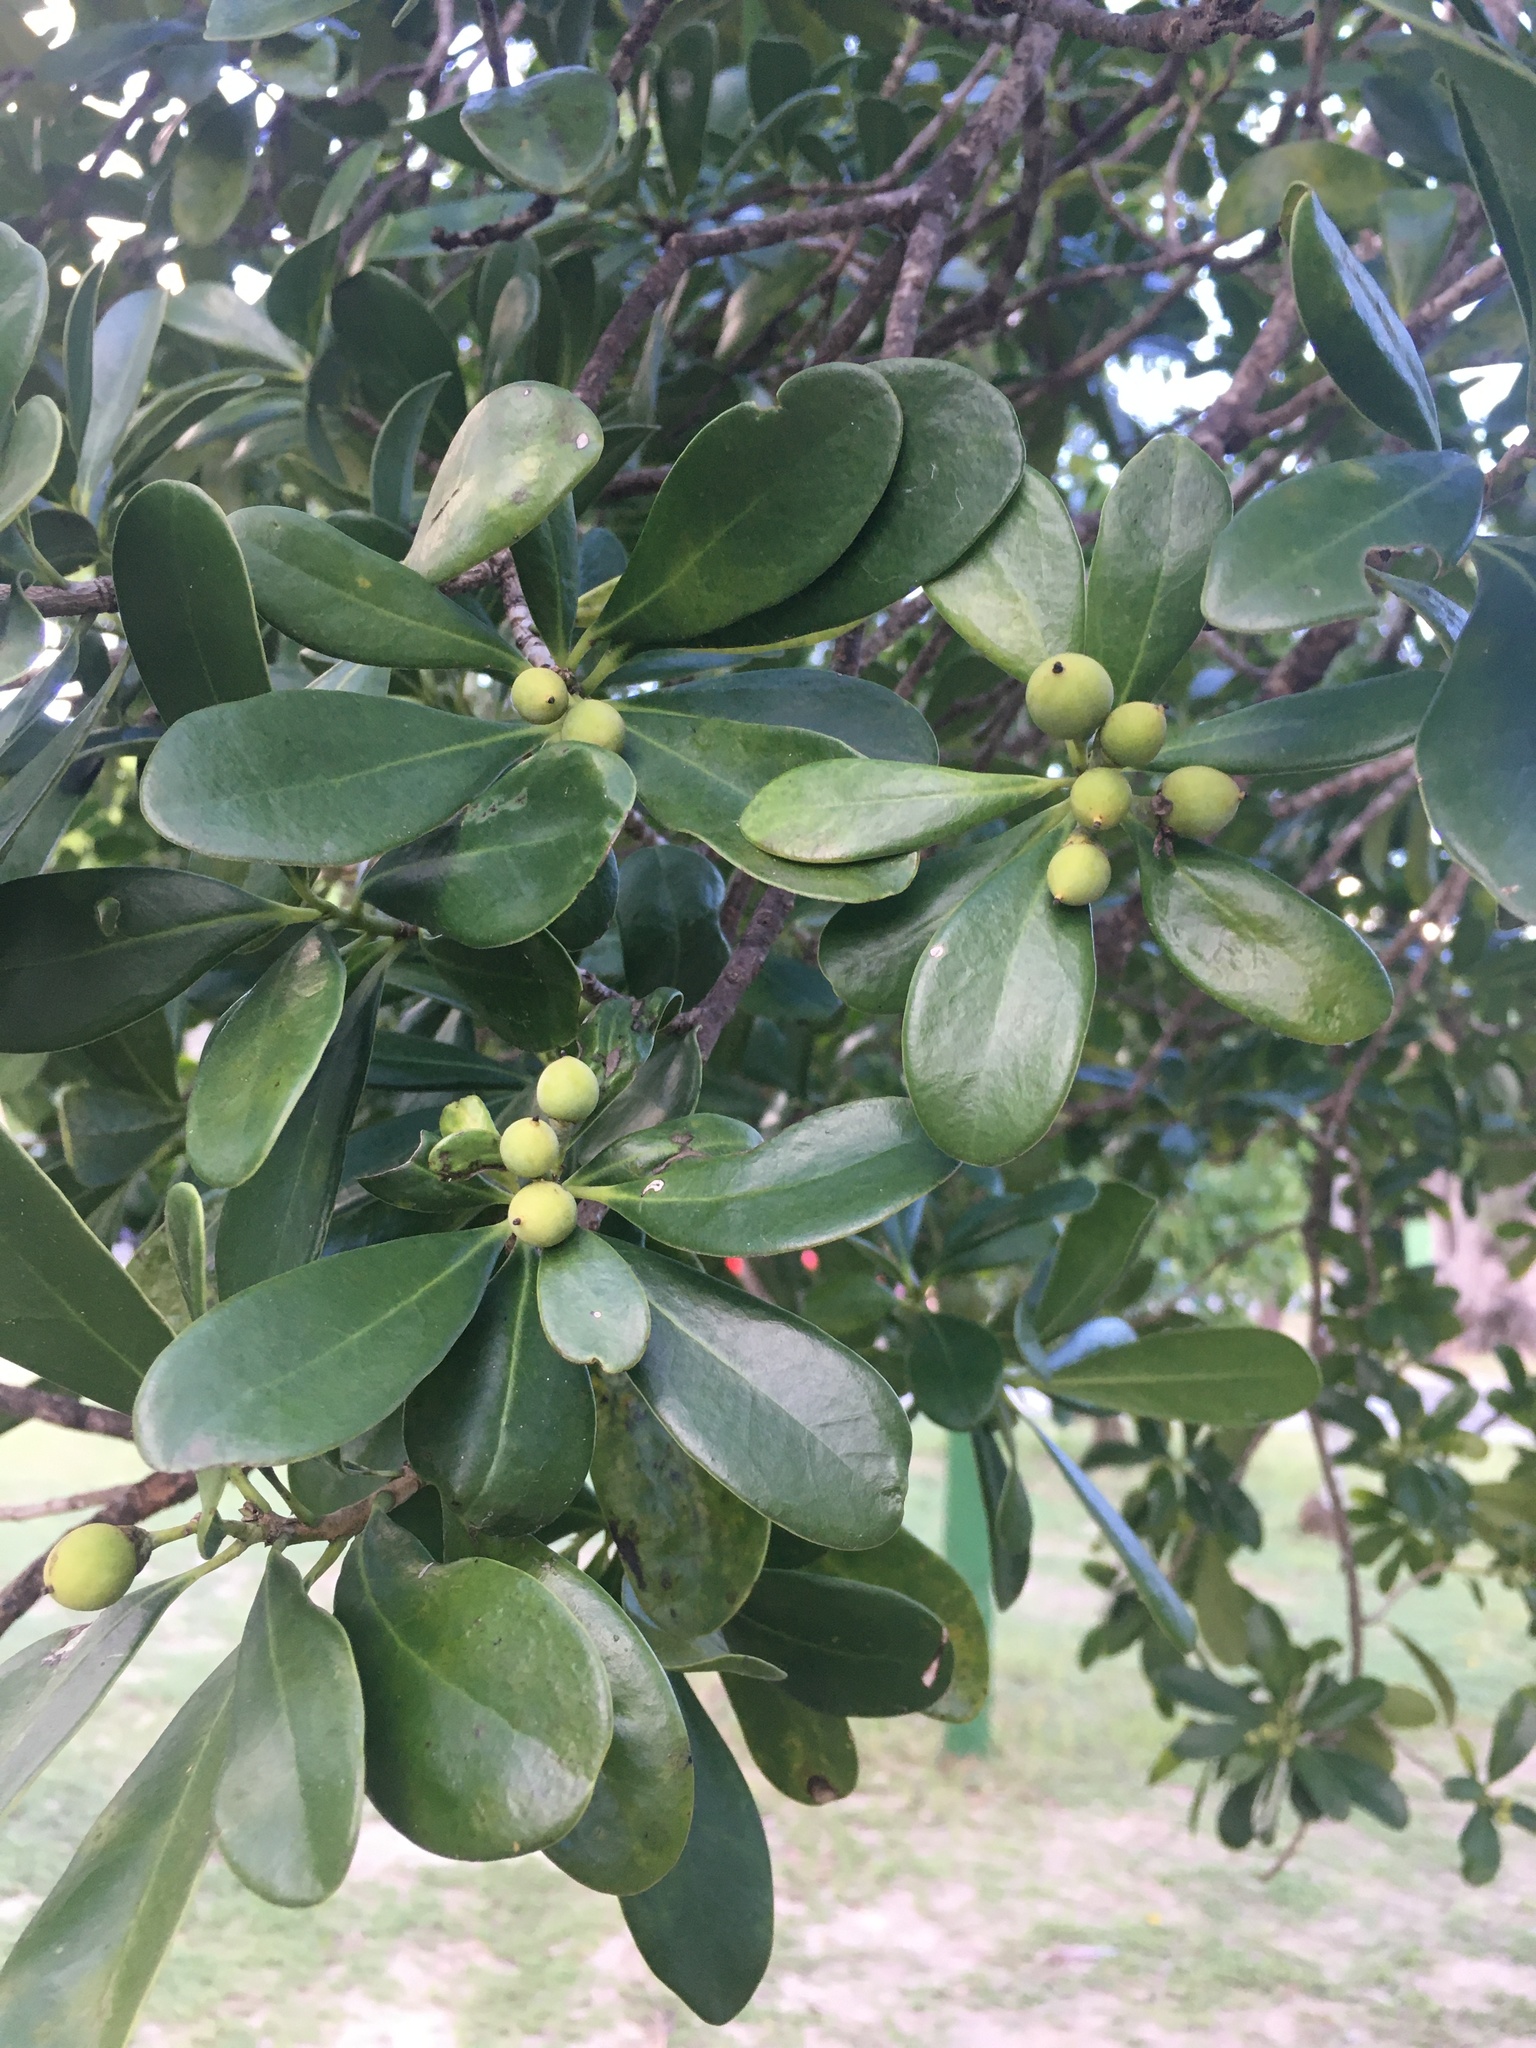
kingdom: Plantae
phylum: Tracheophyta
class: Magnoliopsida
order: Canellales
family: Canellaceae
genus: Canella
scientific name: Canella winterana
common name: Canella
